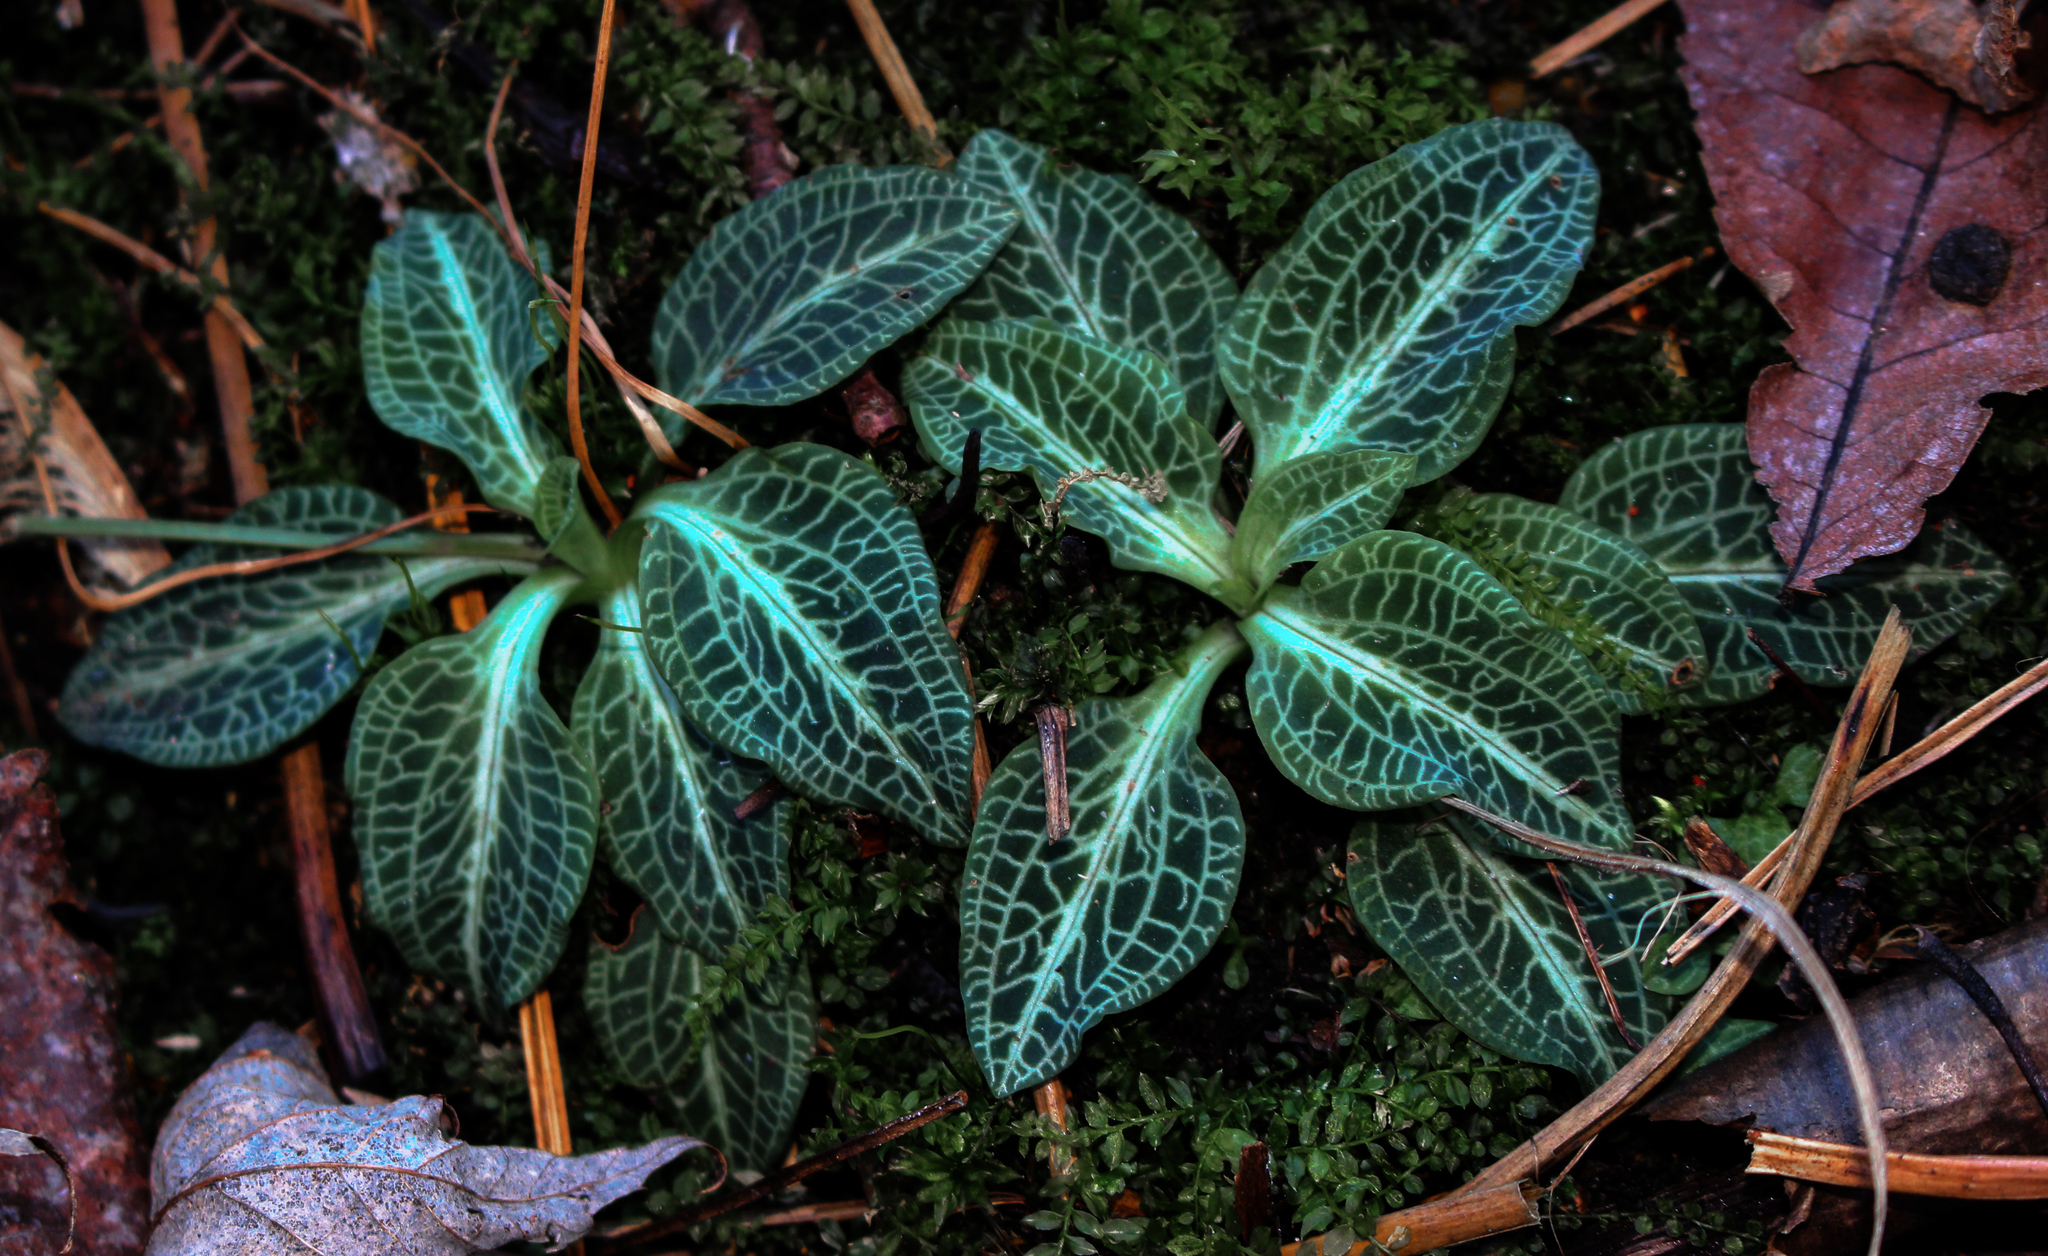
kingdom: Plantae
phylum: Tracheophyta
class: Liliopsida
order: Asparagales
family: Orchidaceae
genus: Goodyera
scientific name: Goodyera pubescens
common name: Downy rattlesnake-plantain
